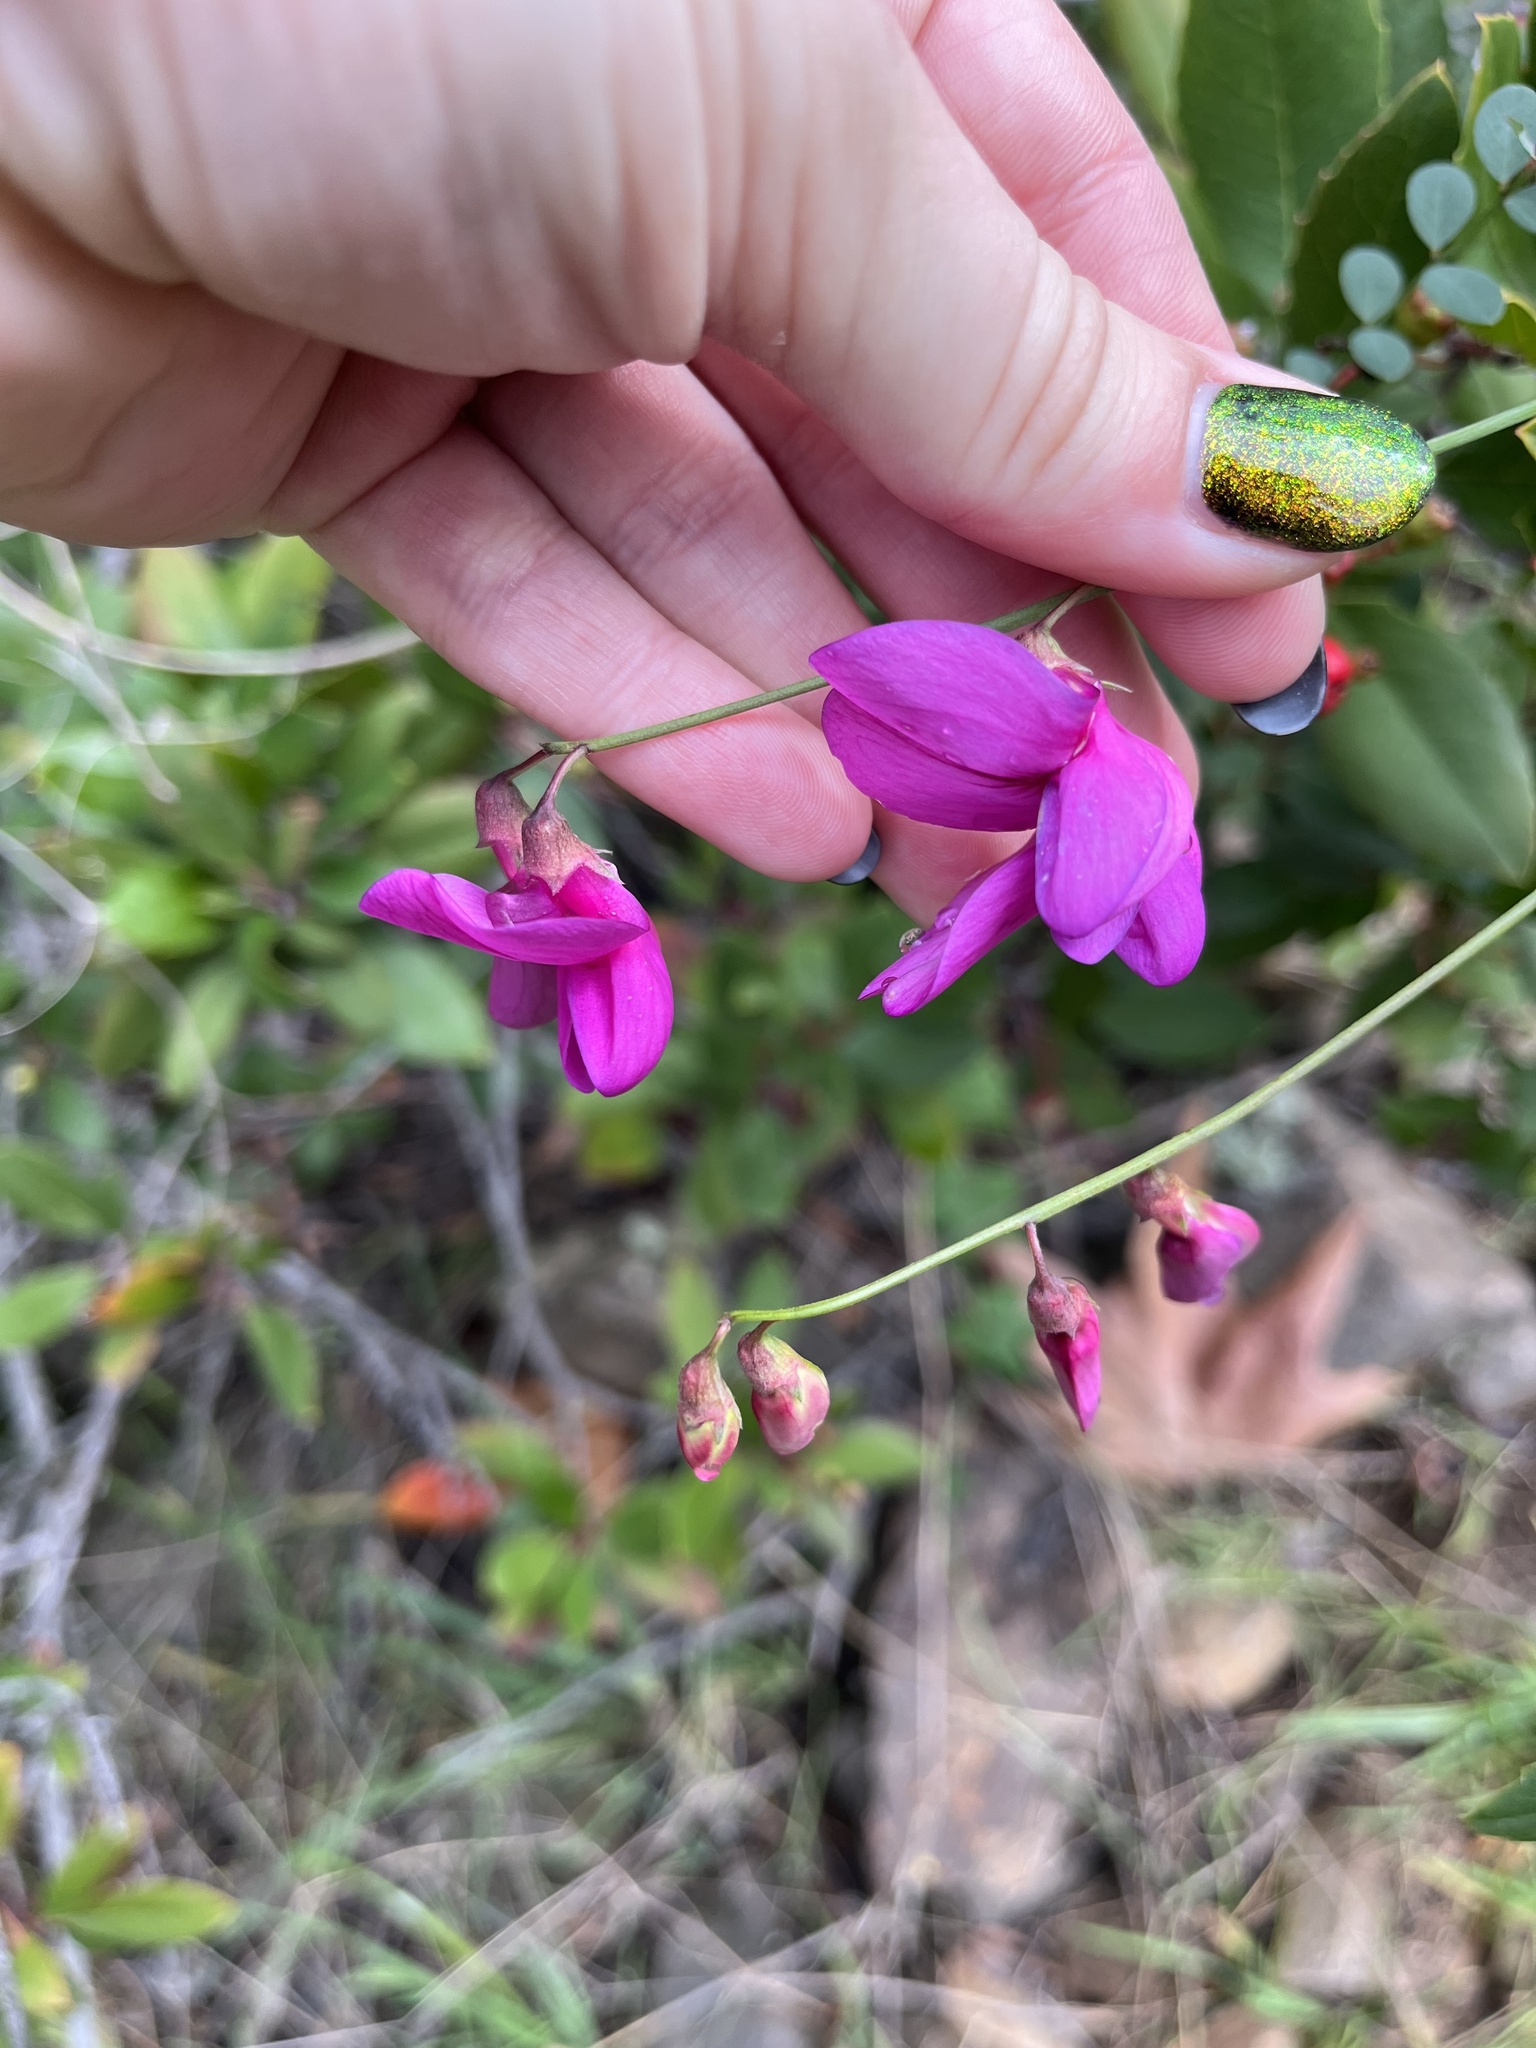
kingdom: Plantae
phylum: Tracheophyta
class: Magnoliopsida
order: Fabales
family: Fabaceae
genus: Lathyrus
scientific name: Lathyrus vestitus
